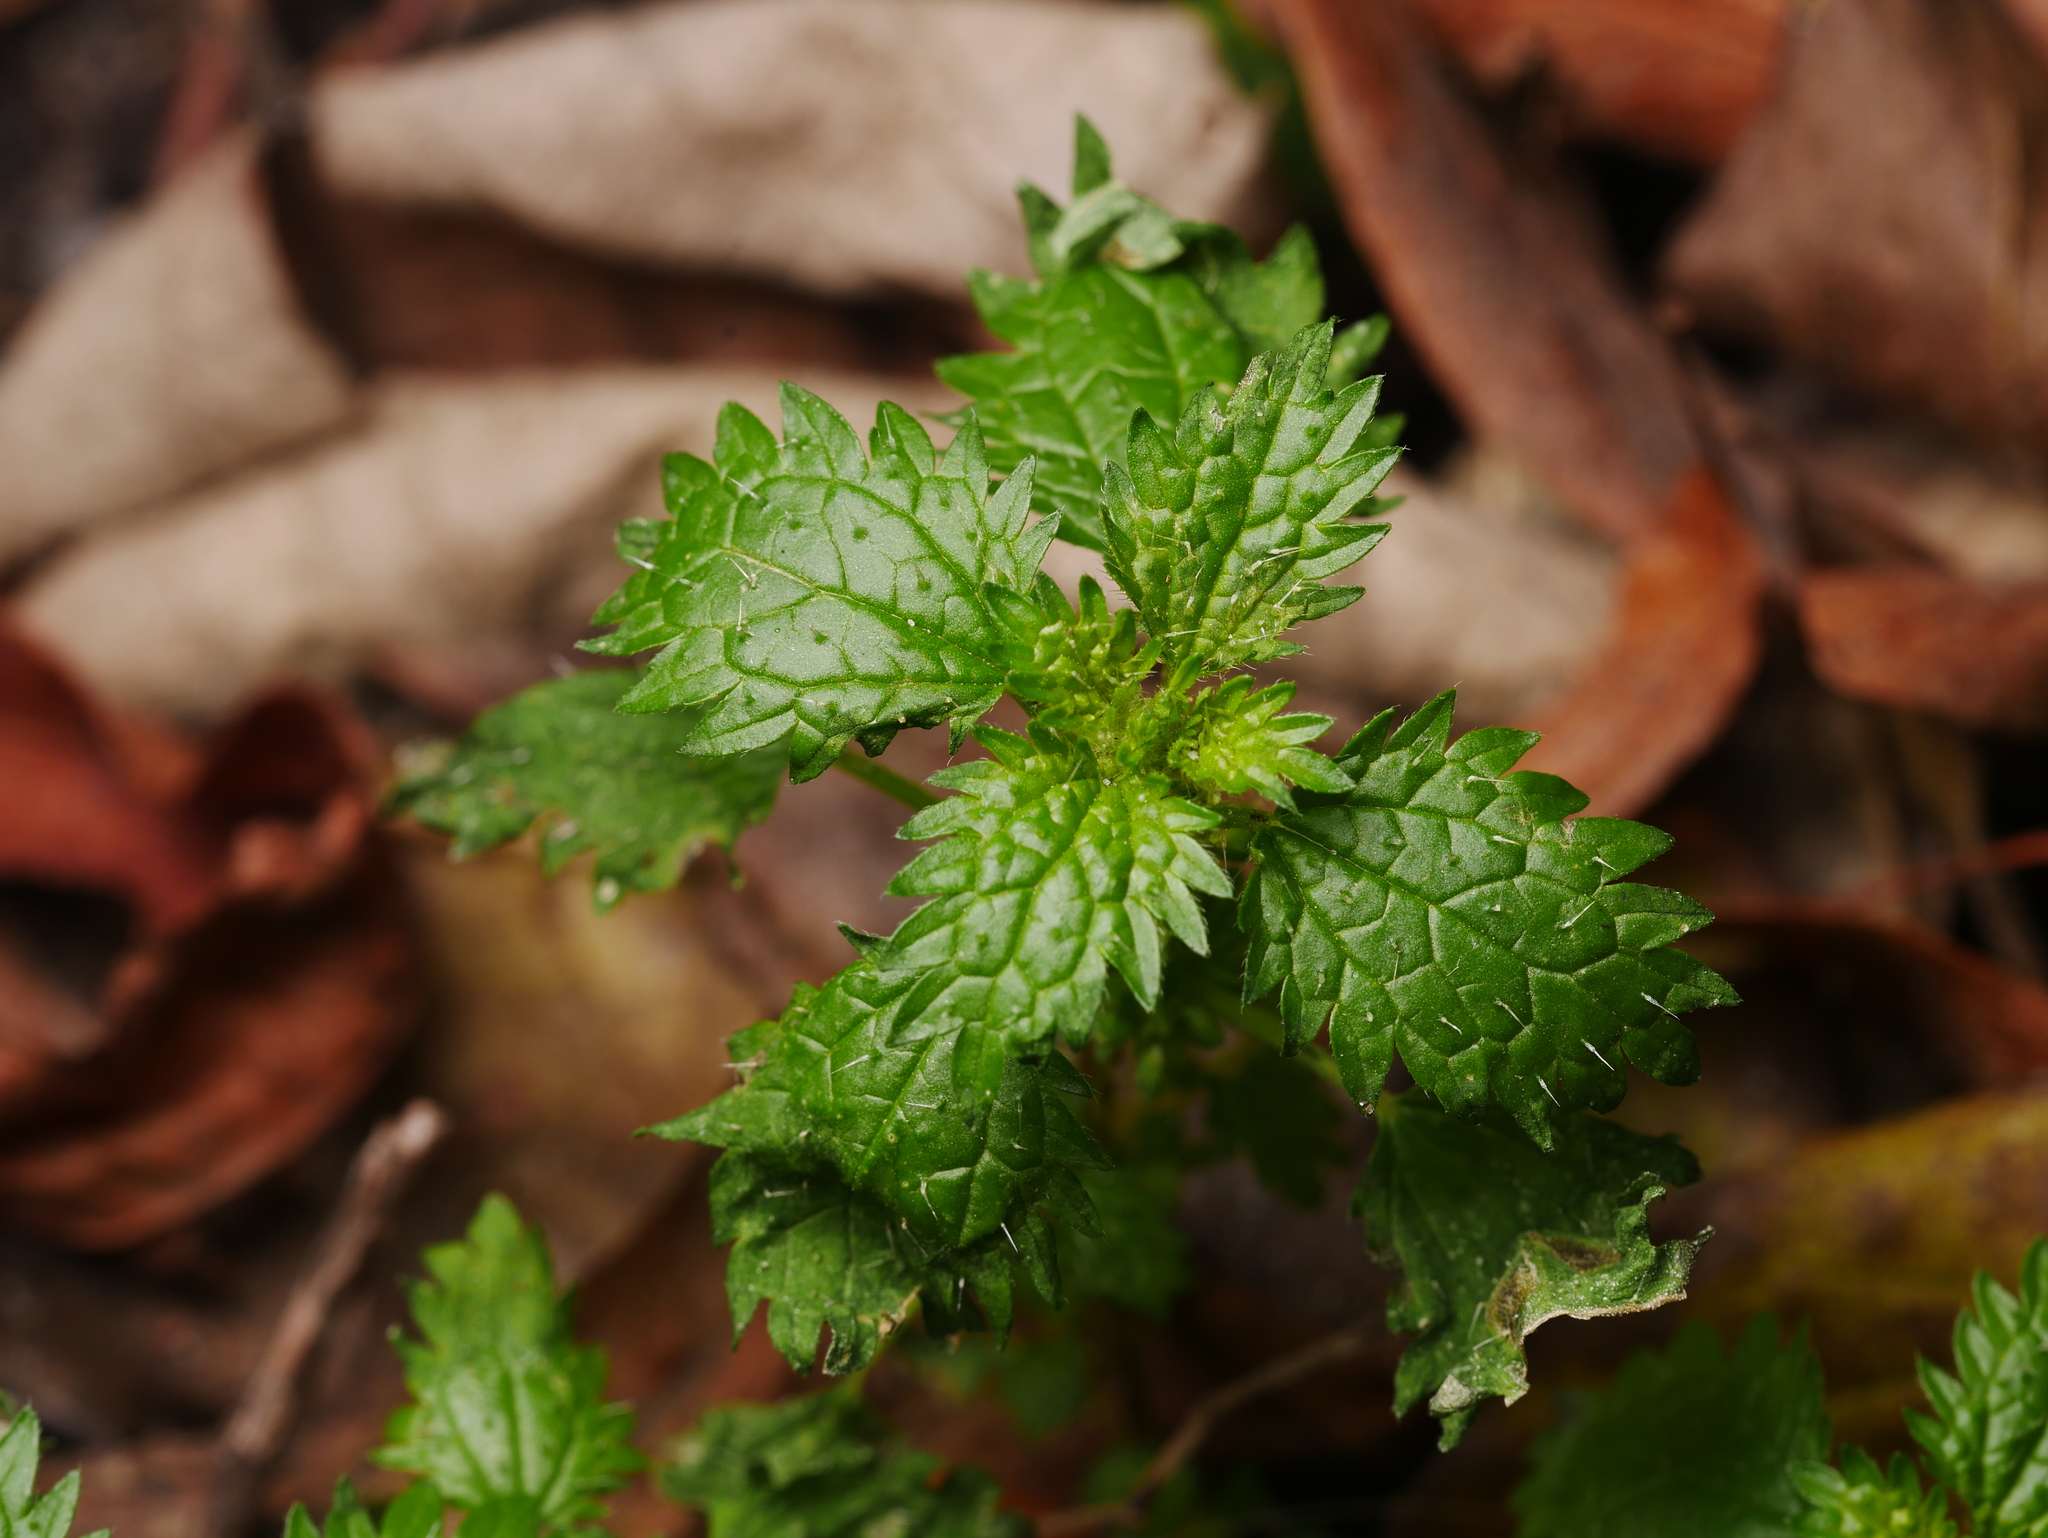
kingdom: Plantae
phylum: Tracheophyta
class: Magnoliopsida
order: Rosales
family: Urticaceae
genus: Urtica
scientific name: Urtica urens
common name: Dwarf nettle
